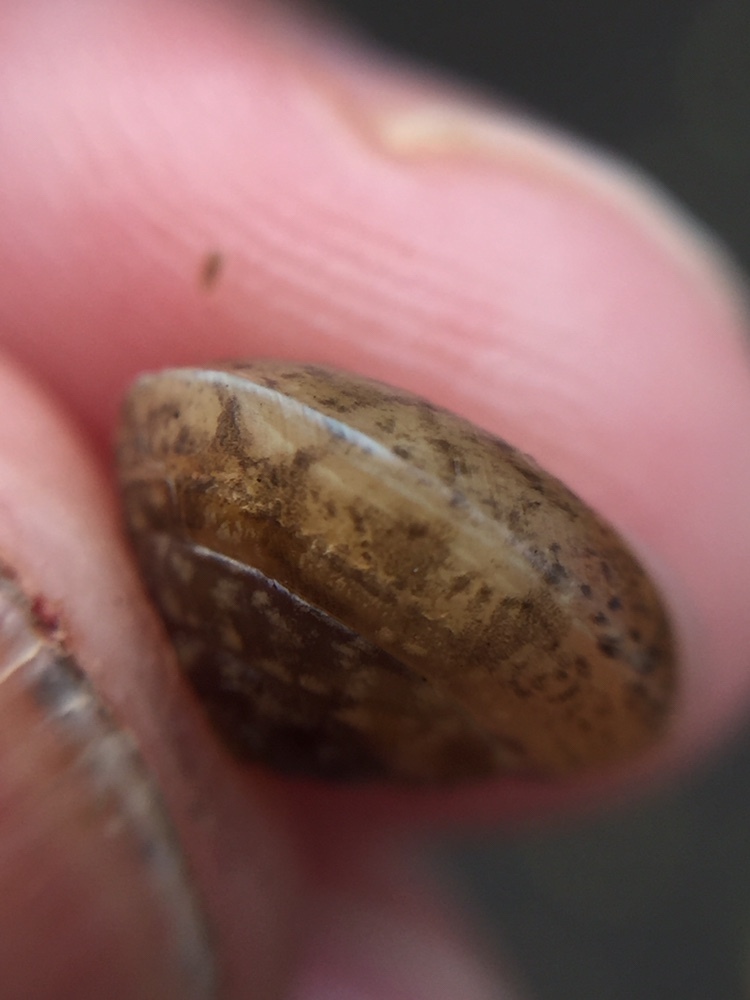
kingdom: Animalia
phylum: Mollusca
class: Gastropoda
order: Stylommatophora
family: Hygromiidae
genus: Hygromia
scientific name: Hygromia cinctella
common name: Girdled snail
